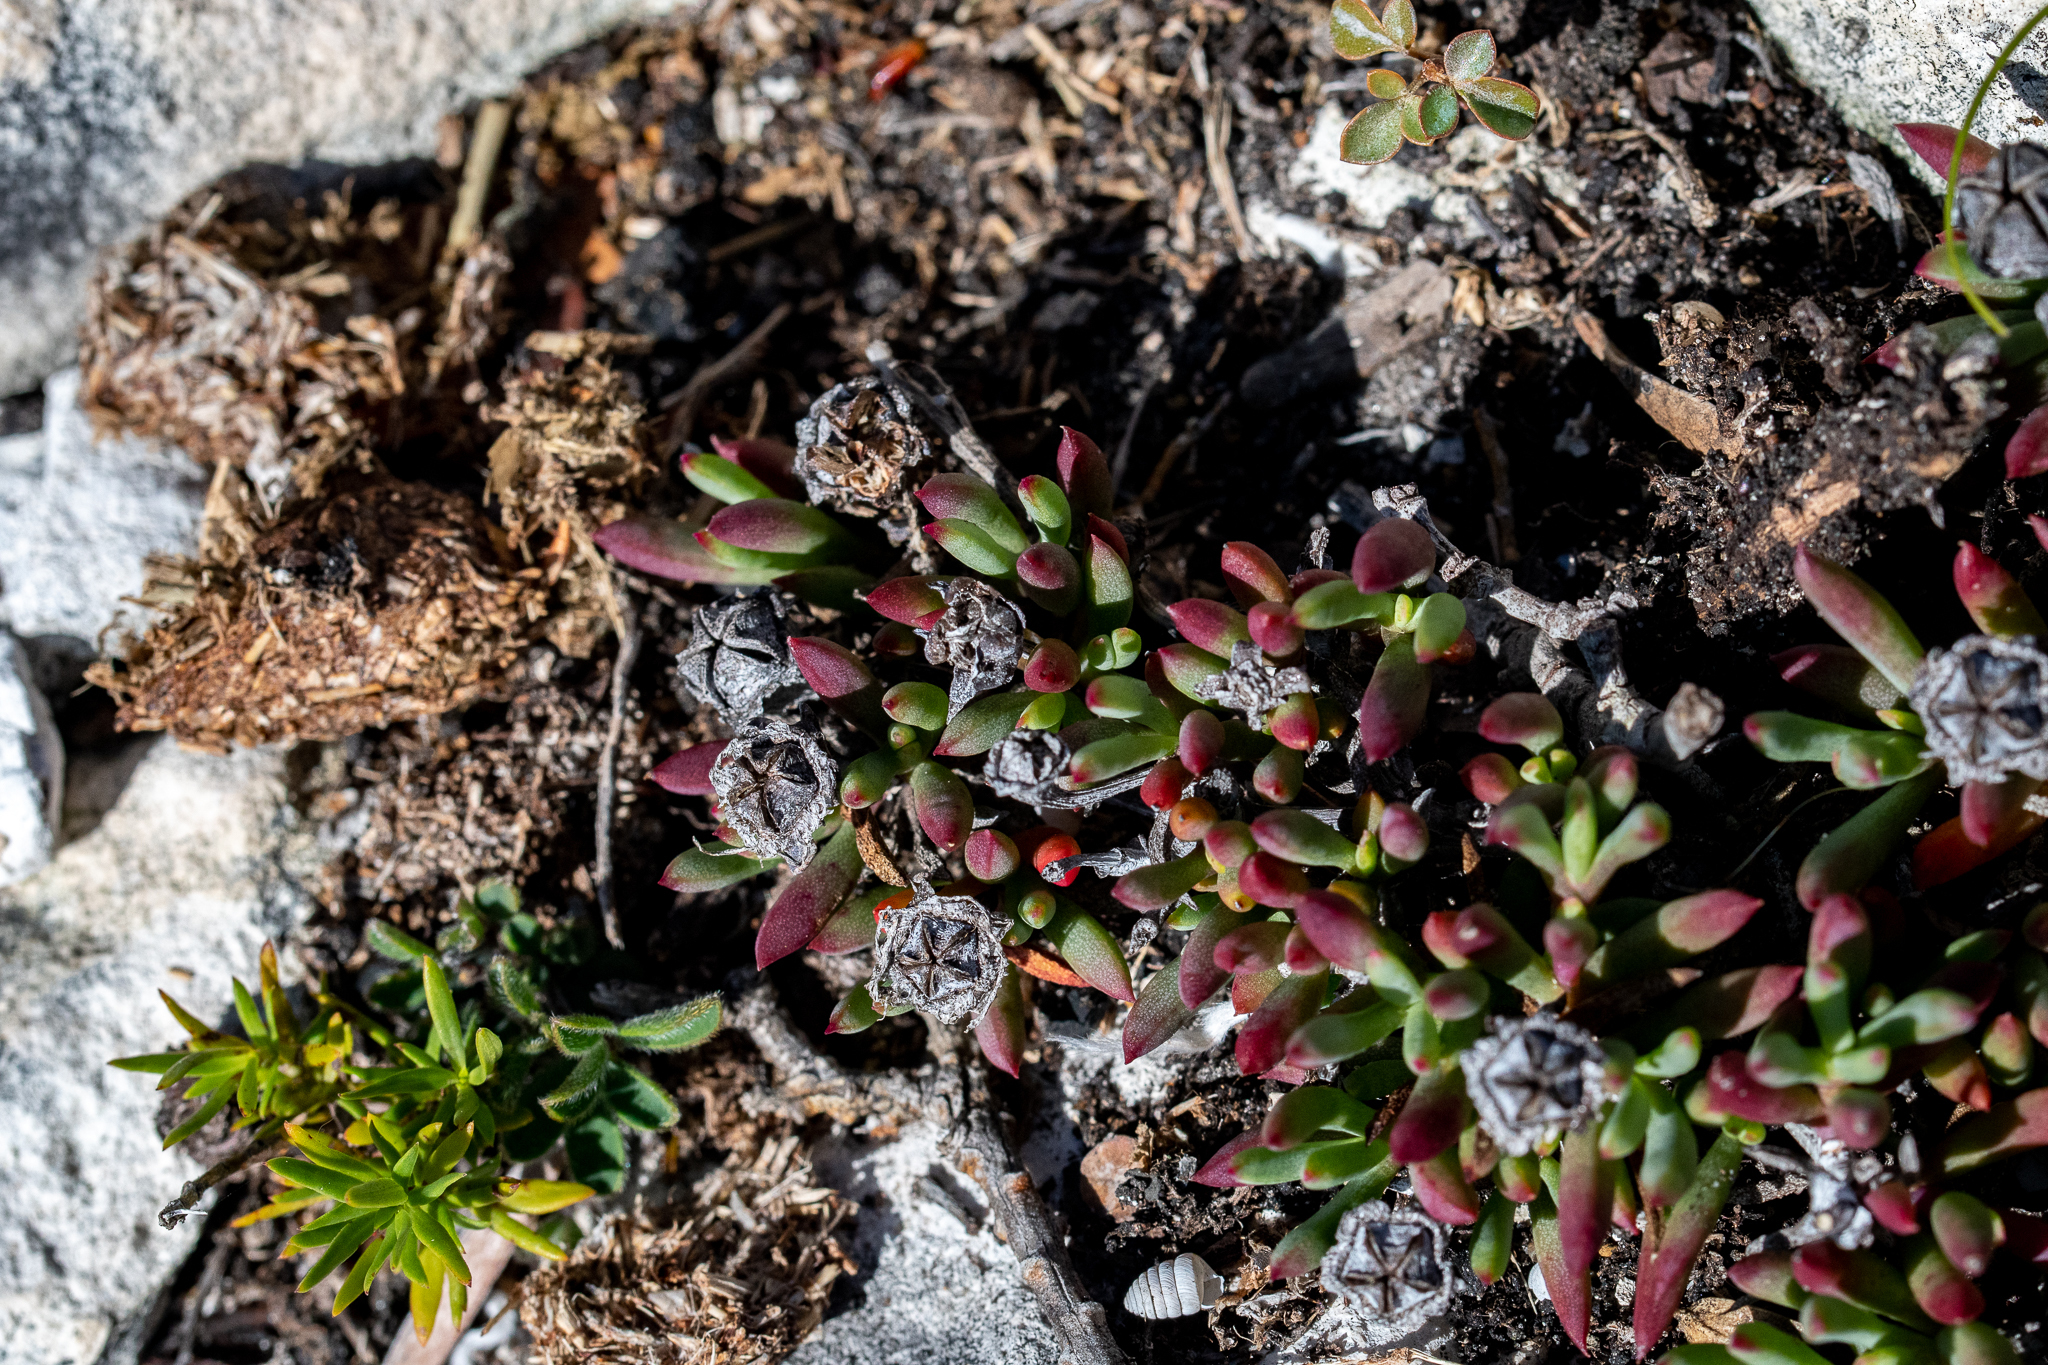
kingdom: Plantae
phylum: Tracheophyta
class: Magnoliopsida
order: Caryophyllales
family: Aizoaceae
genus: Lampranthus
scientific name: Lampranthus ceriseus
